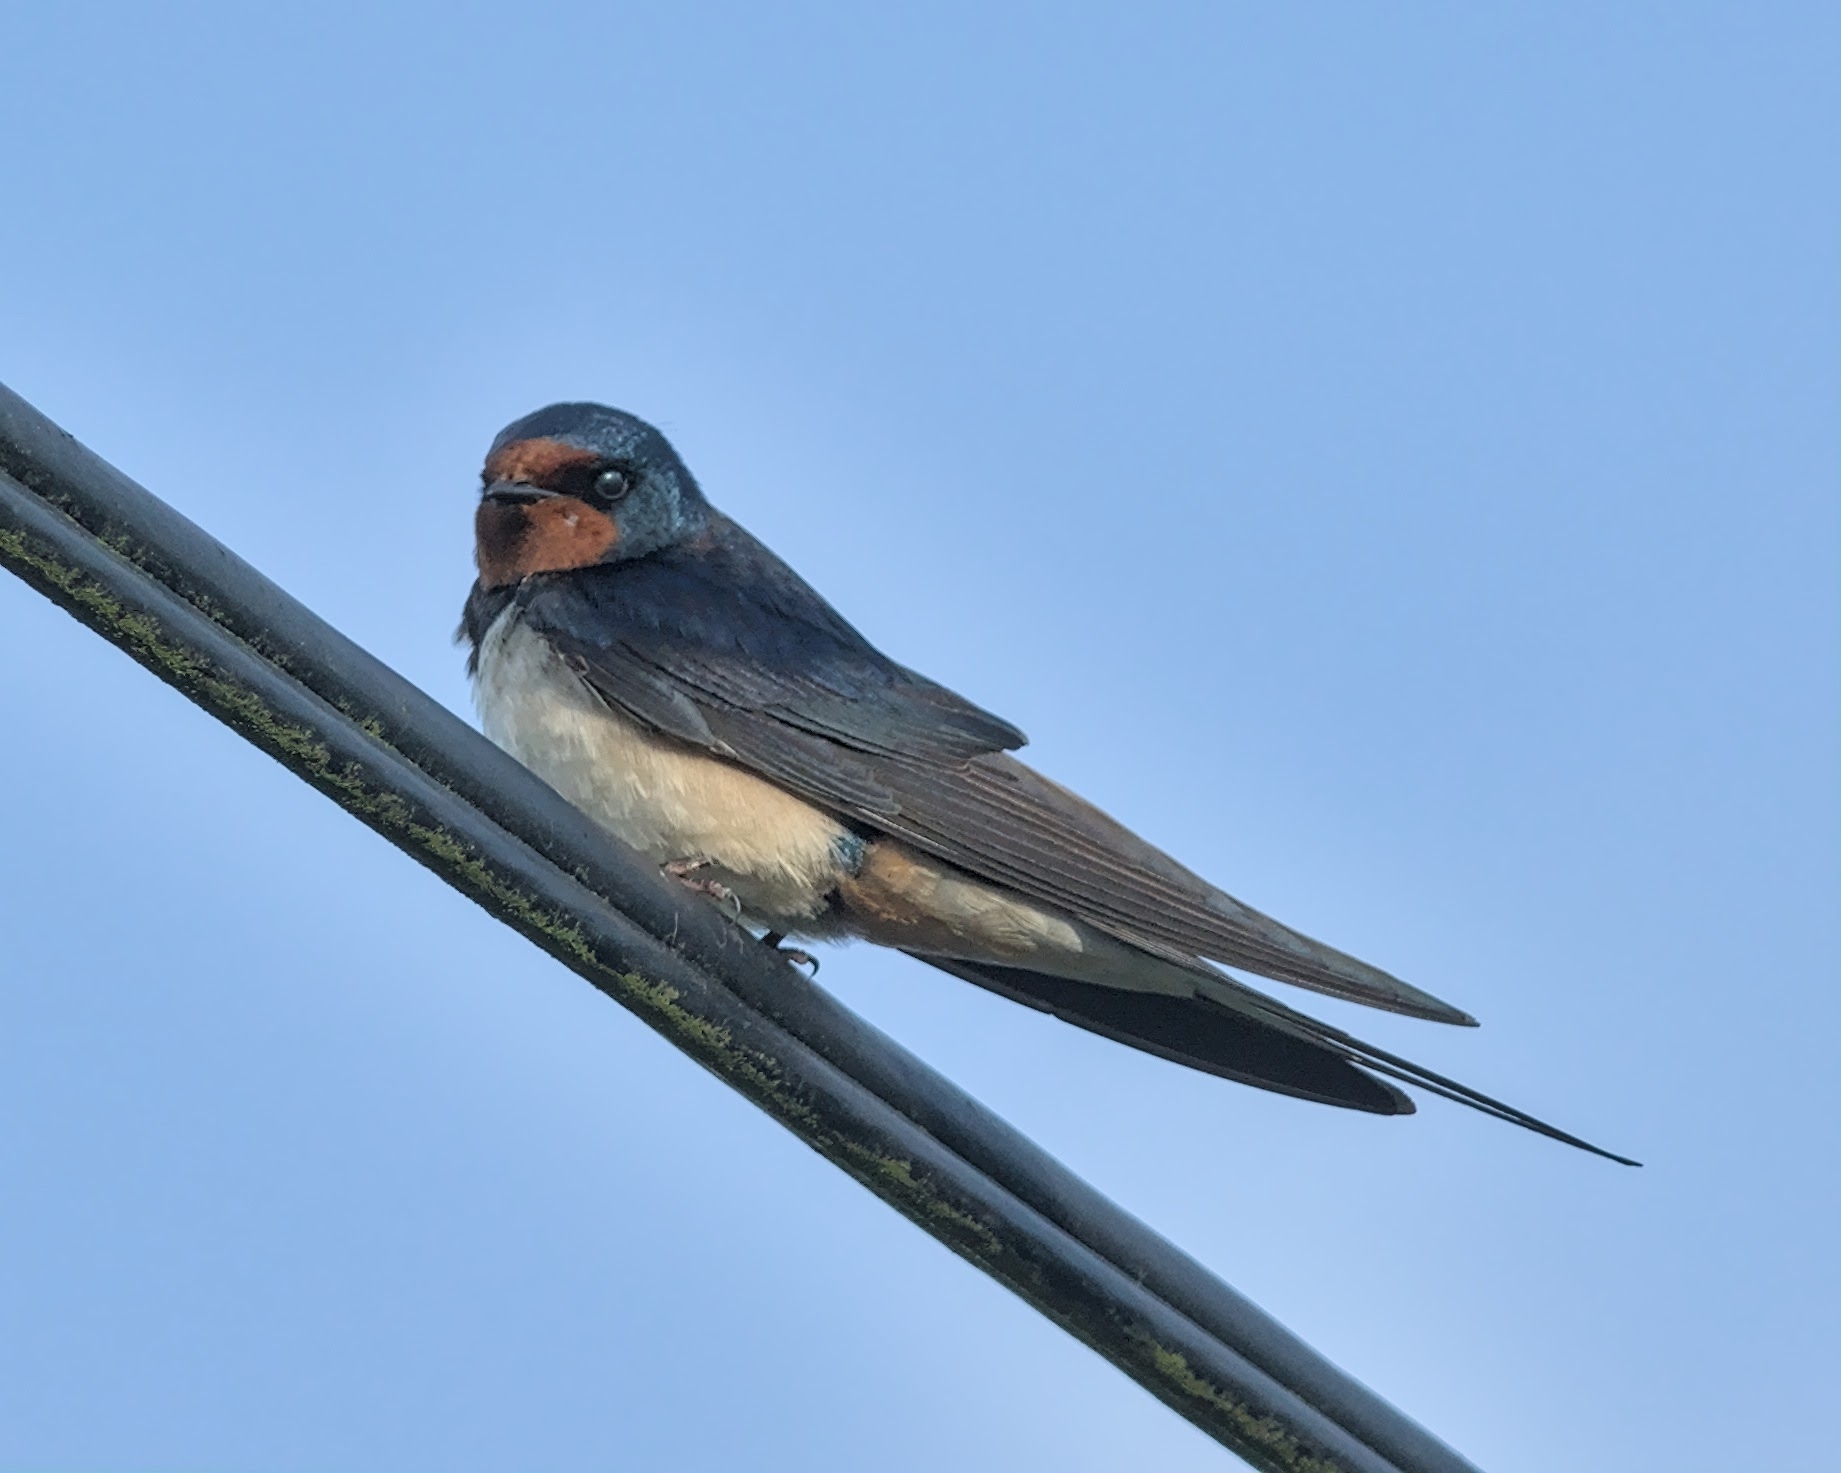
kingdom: Animalia
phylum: Chordata
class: Aves
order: Passeriformes
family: Hirundinidae
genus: Hirundo
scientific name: Hirundo rustica
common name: Barn swallow
